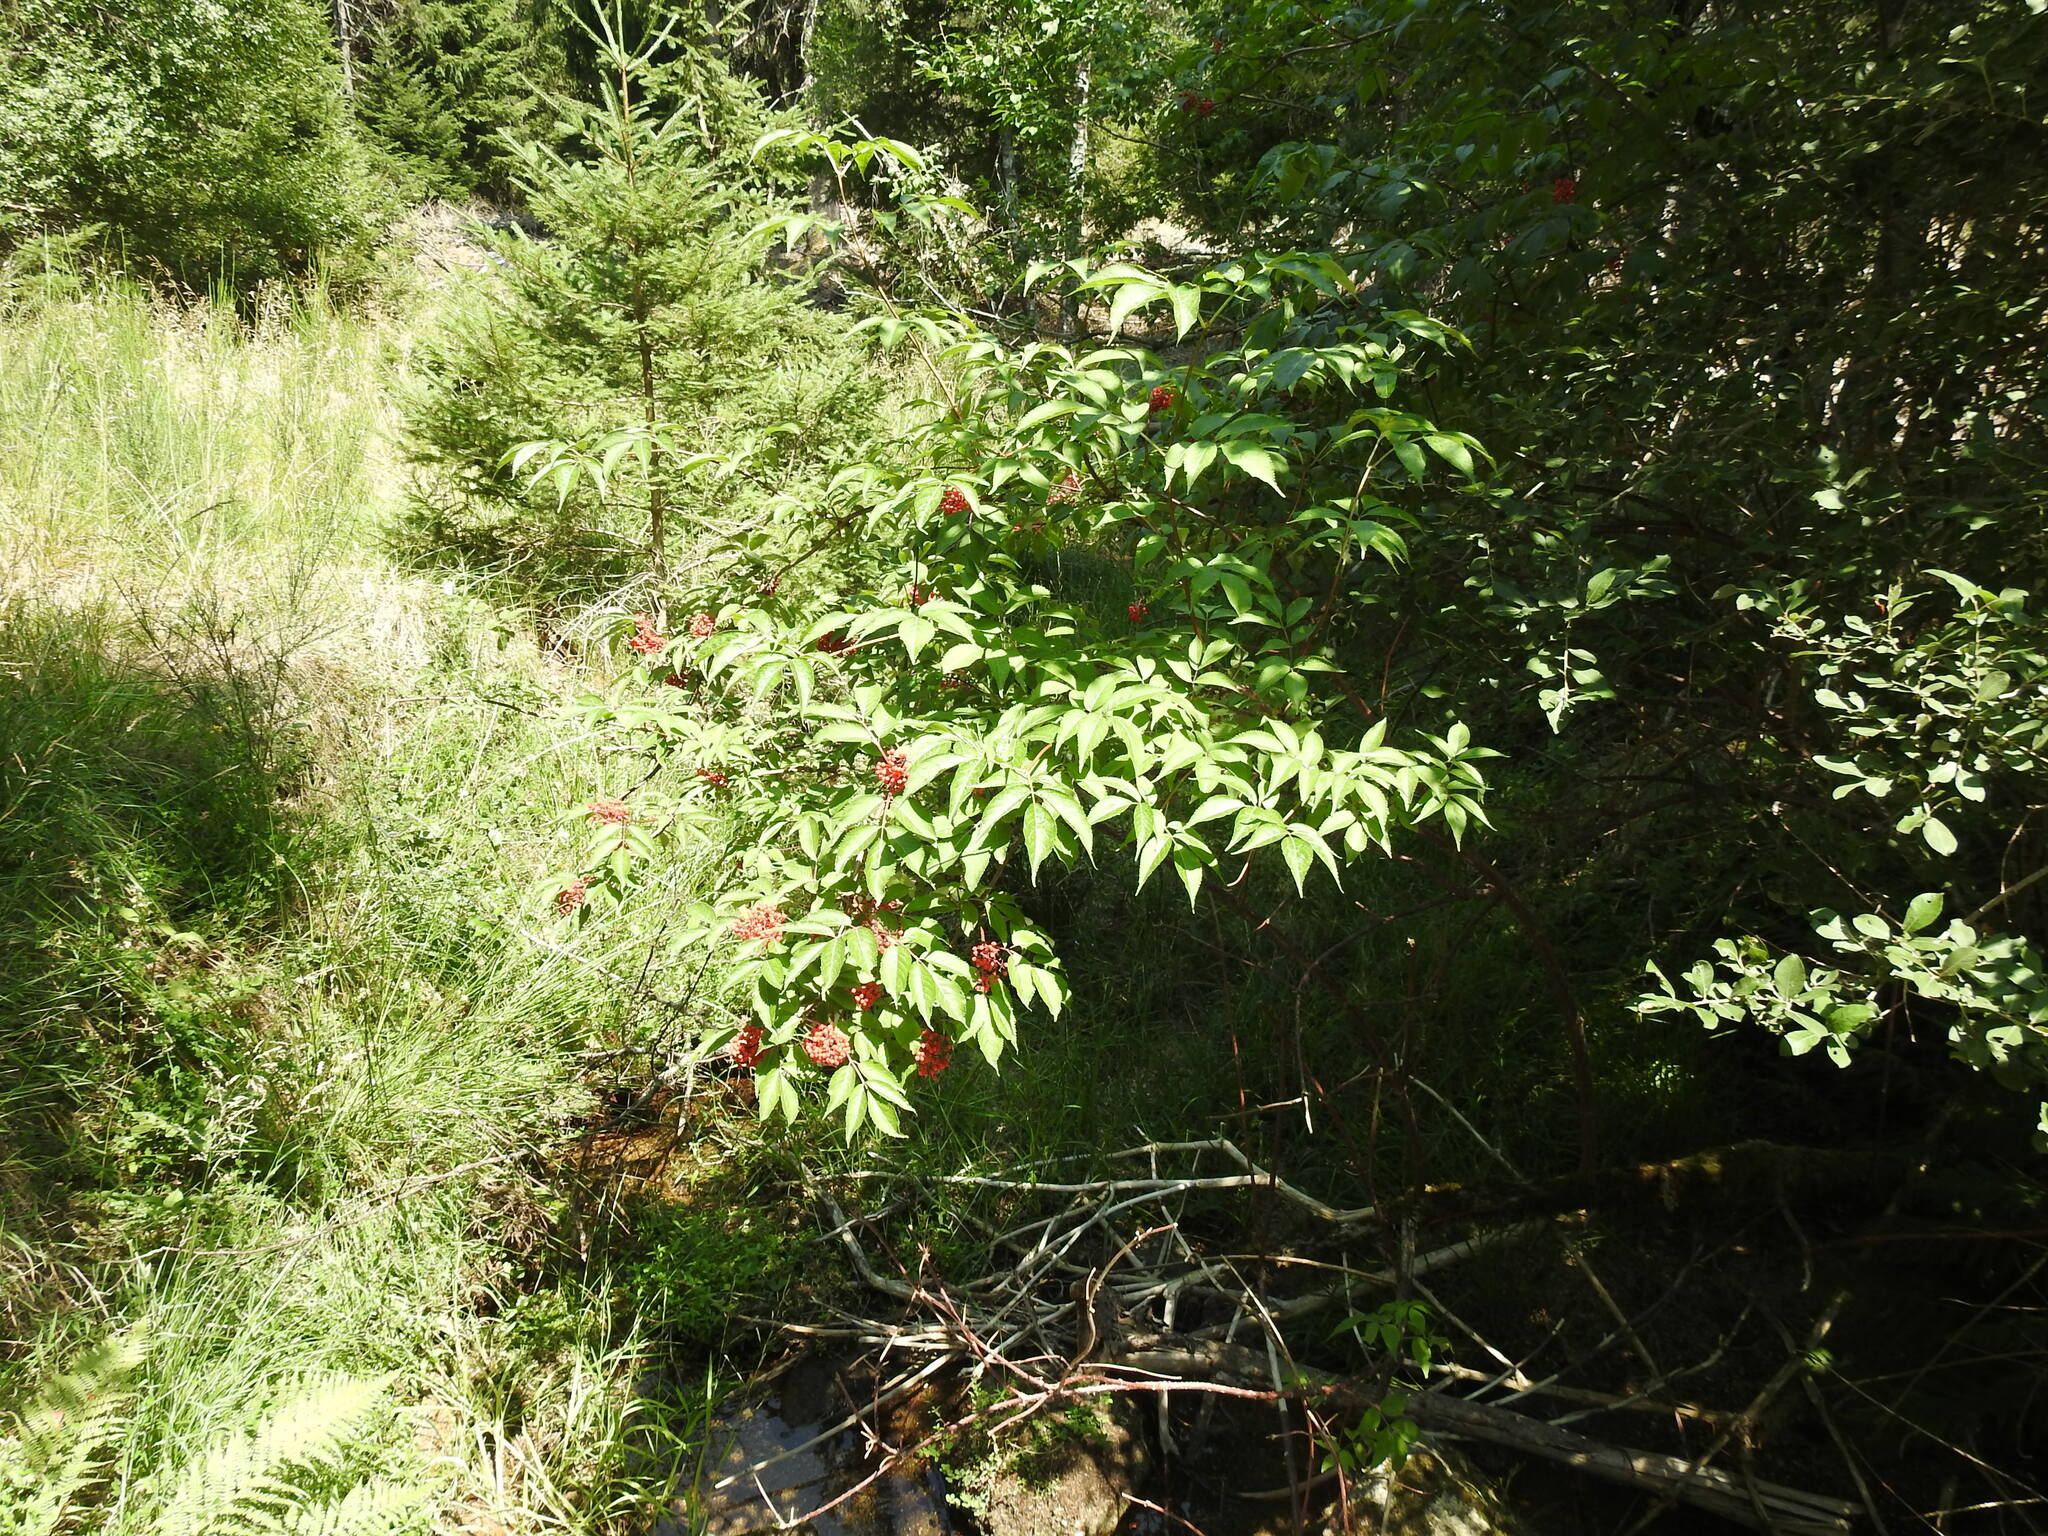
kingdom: Plantae
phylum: Tracheophyta
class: Magnoliopsida
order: Dipsacales
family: Viburnaceae
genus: Sambucus
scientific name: Sambucus racemosa
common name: Red-berried elder
